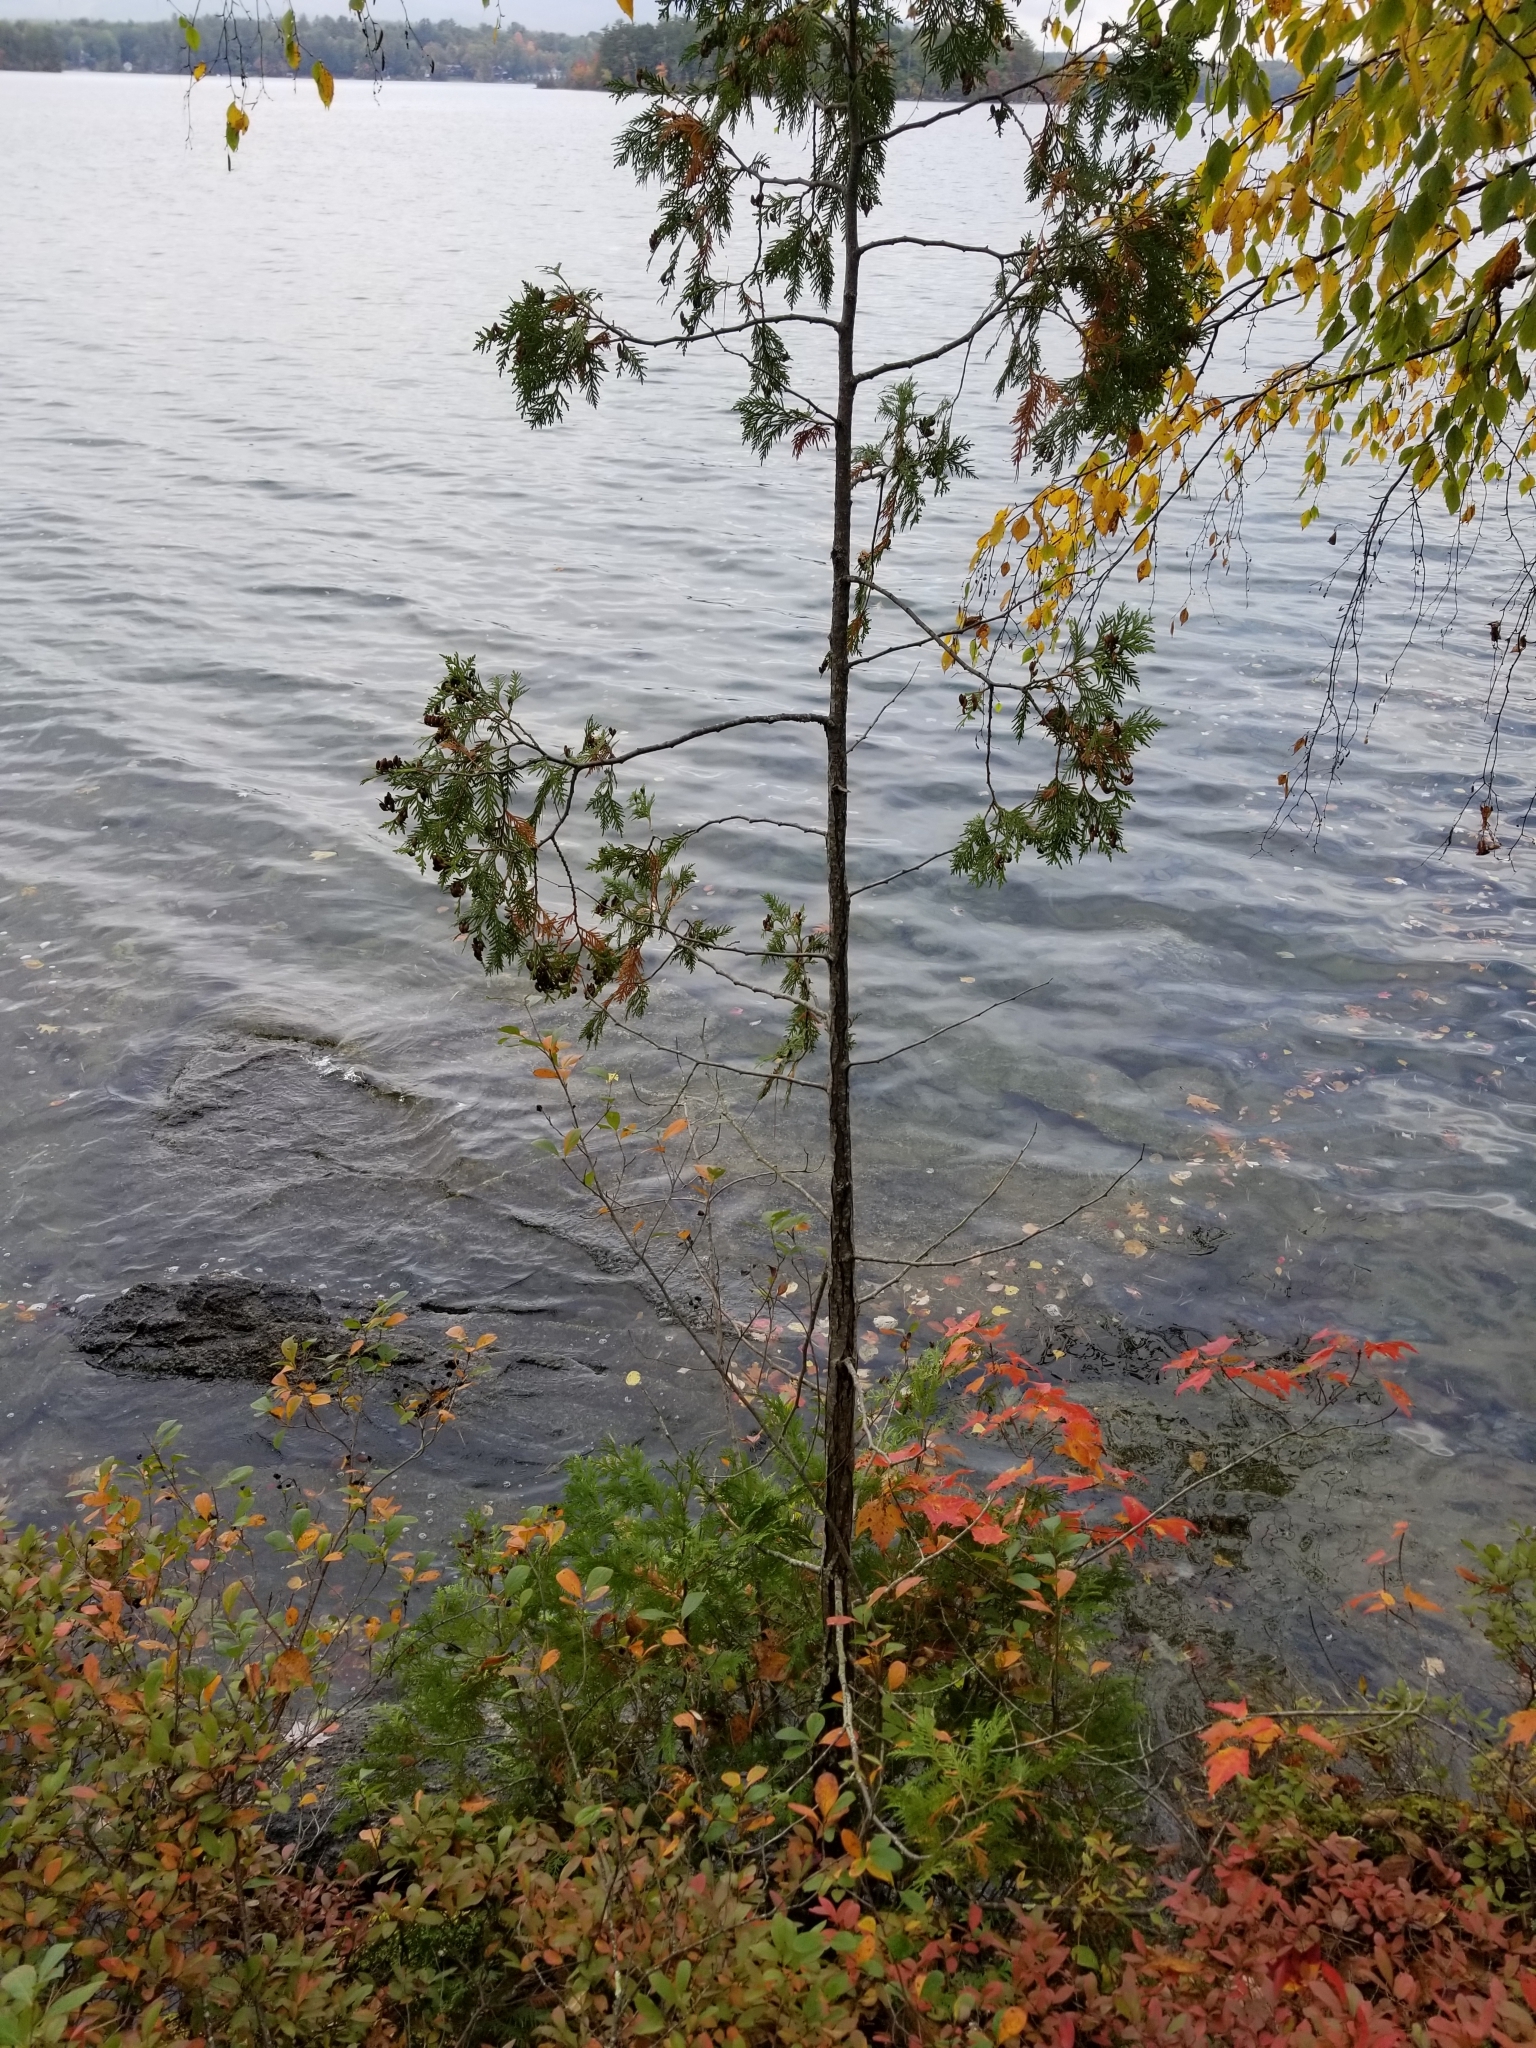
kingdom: Plantae
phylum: Tracheophyta
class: Pinopsida
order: Pinales
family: Cupressaceae
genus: Thuja
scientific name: Thuja occidentalis
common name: Northern white-cedar
